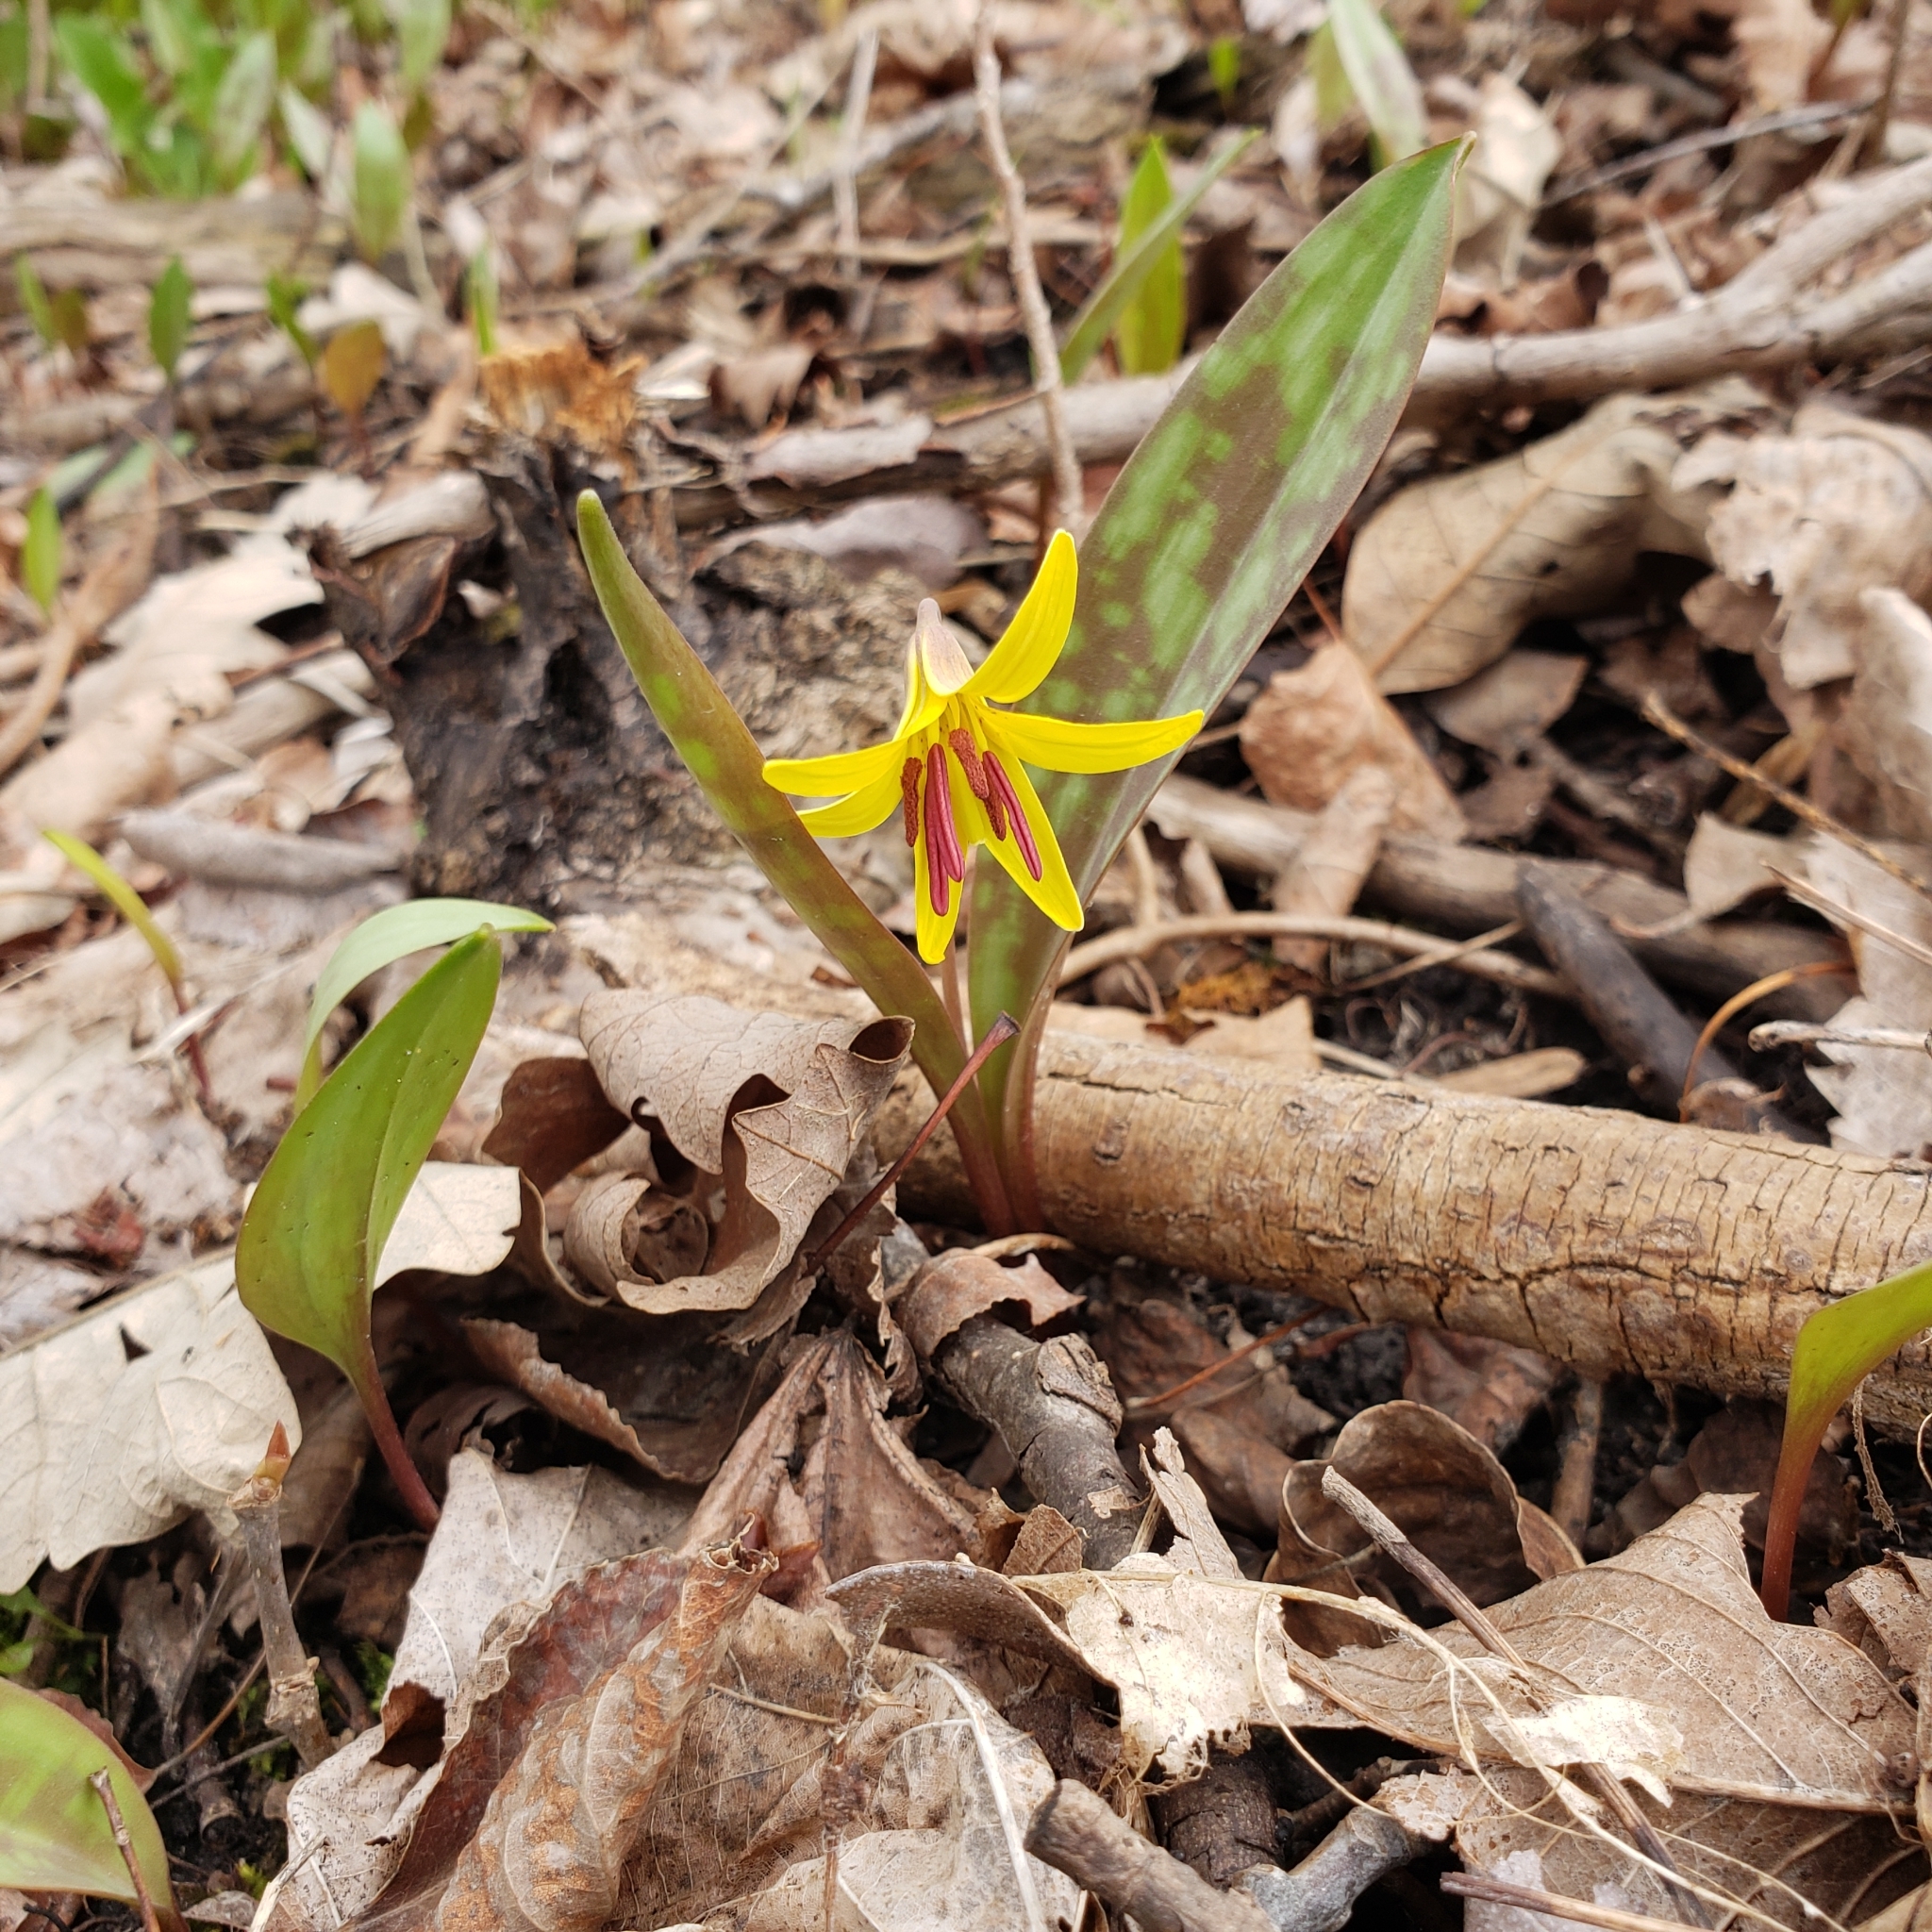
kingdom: Plantae
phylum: Tracheophyta
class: Liliopsida
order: Liliales
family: Liliaceae
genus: Erythronium
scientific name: Erythronium americanum
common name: Yellow adder's-tongue
